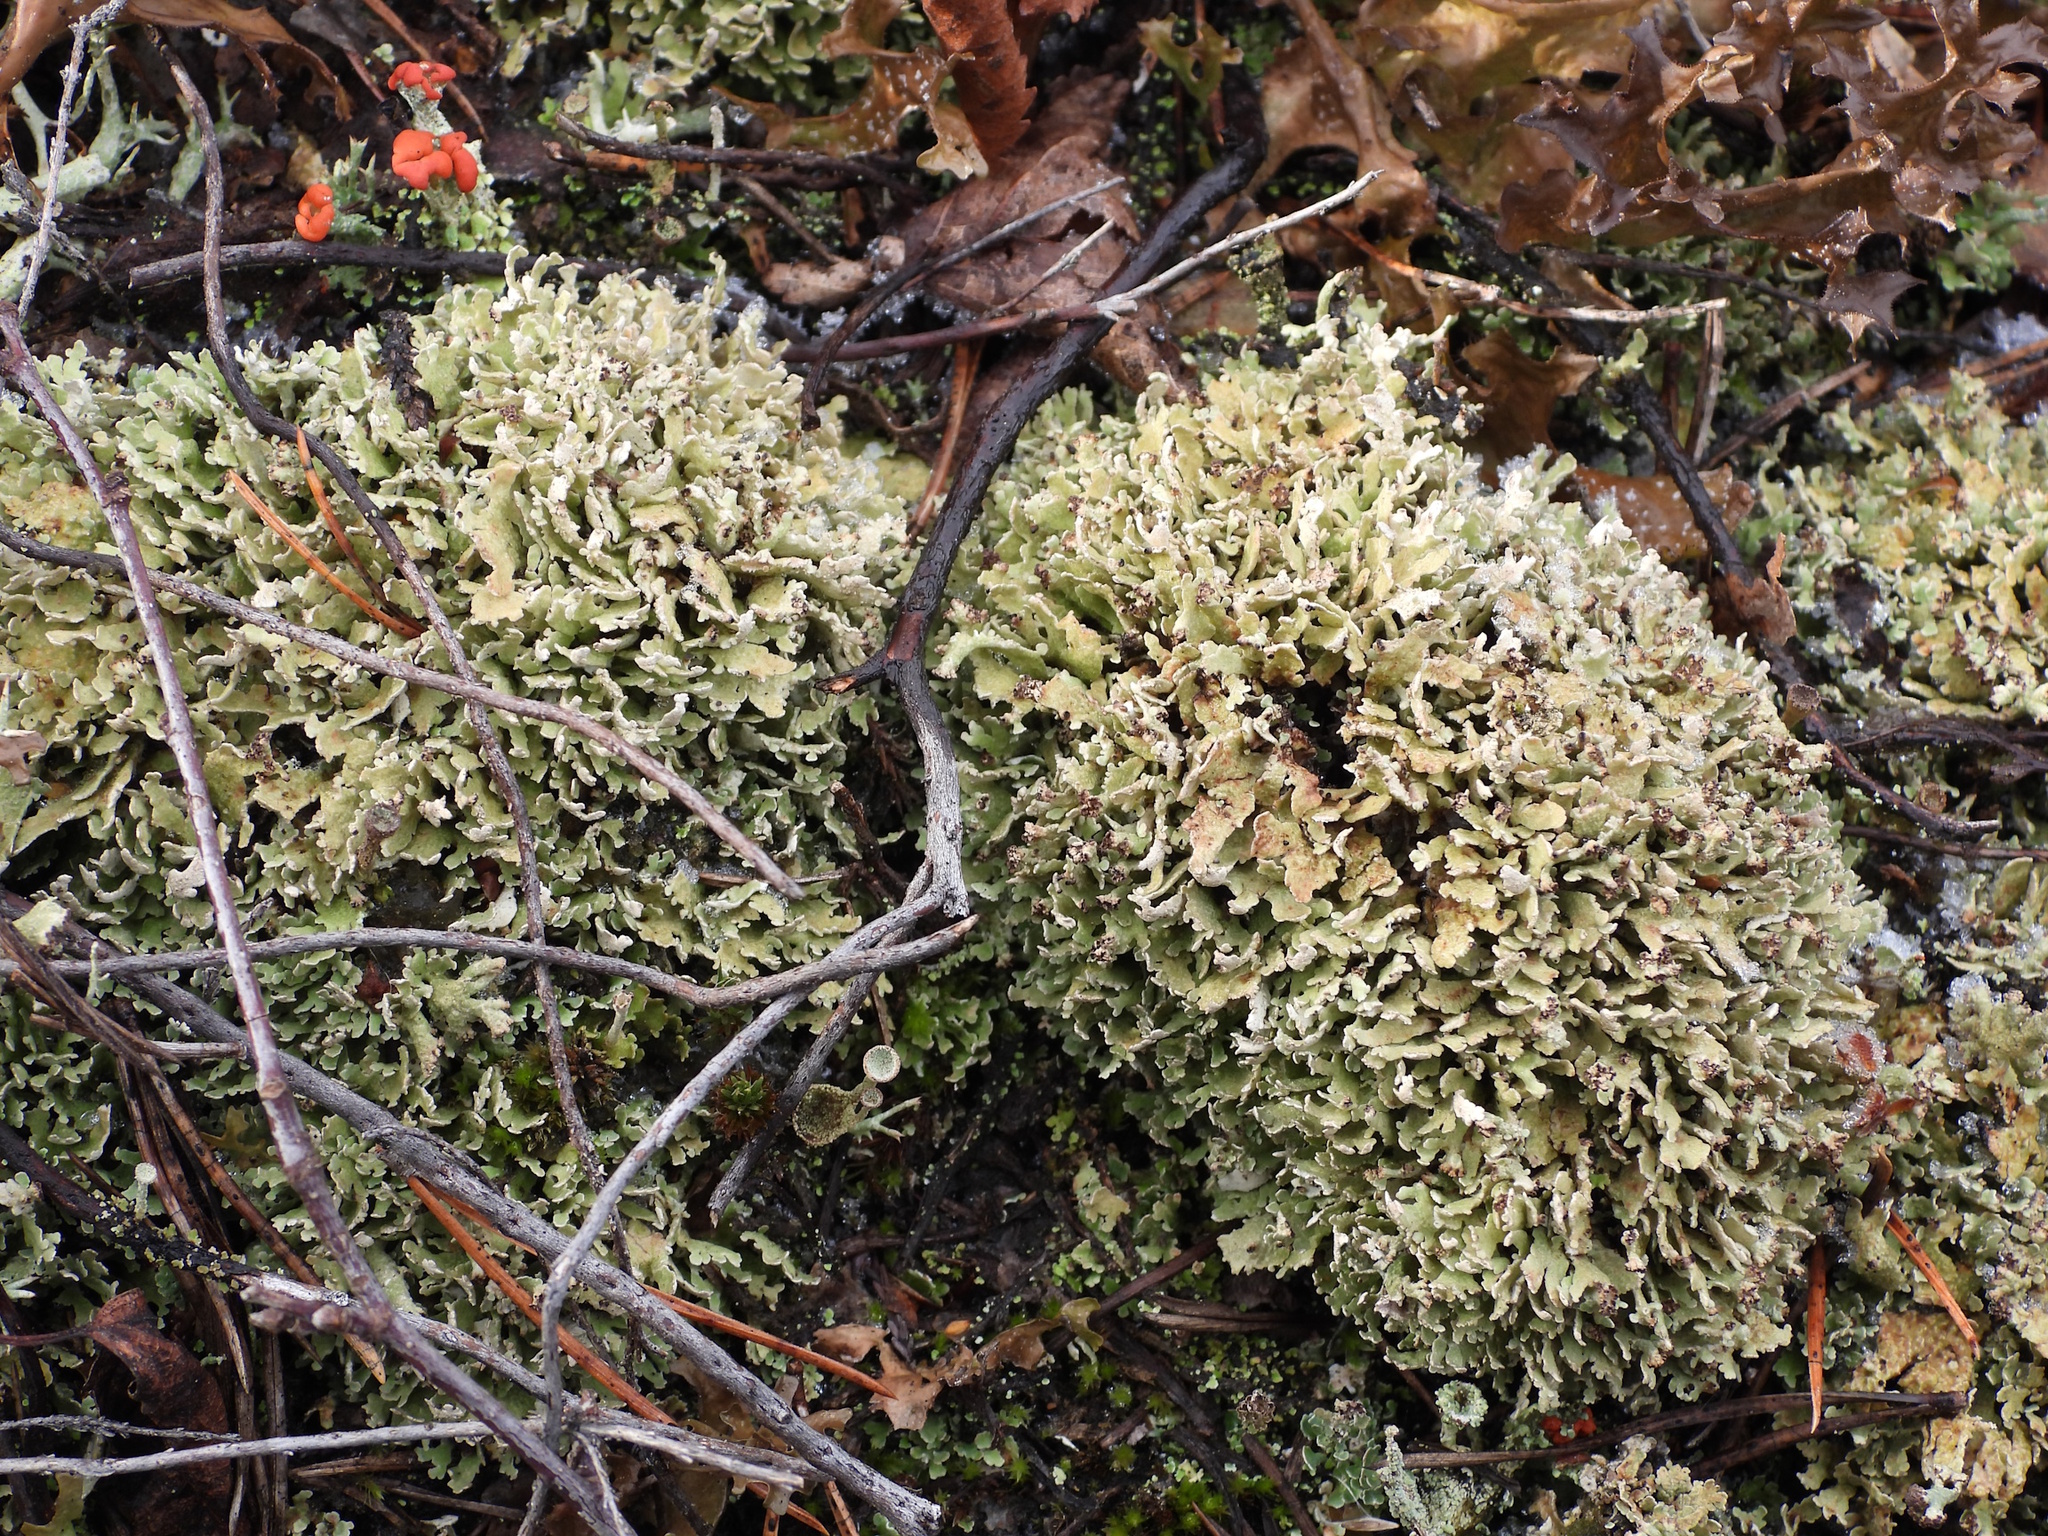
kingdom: Fungi
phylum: Ascomycota
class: Lecanoromycetes
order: Lecanorales
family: Cladoniaceae
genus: Cladonia
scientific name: Cladonia strepsilis
